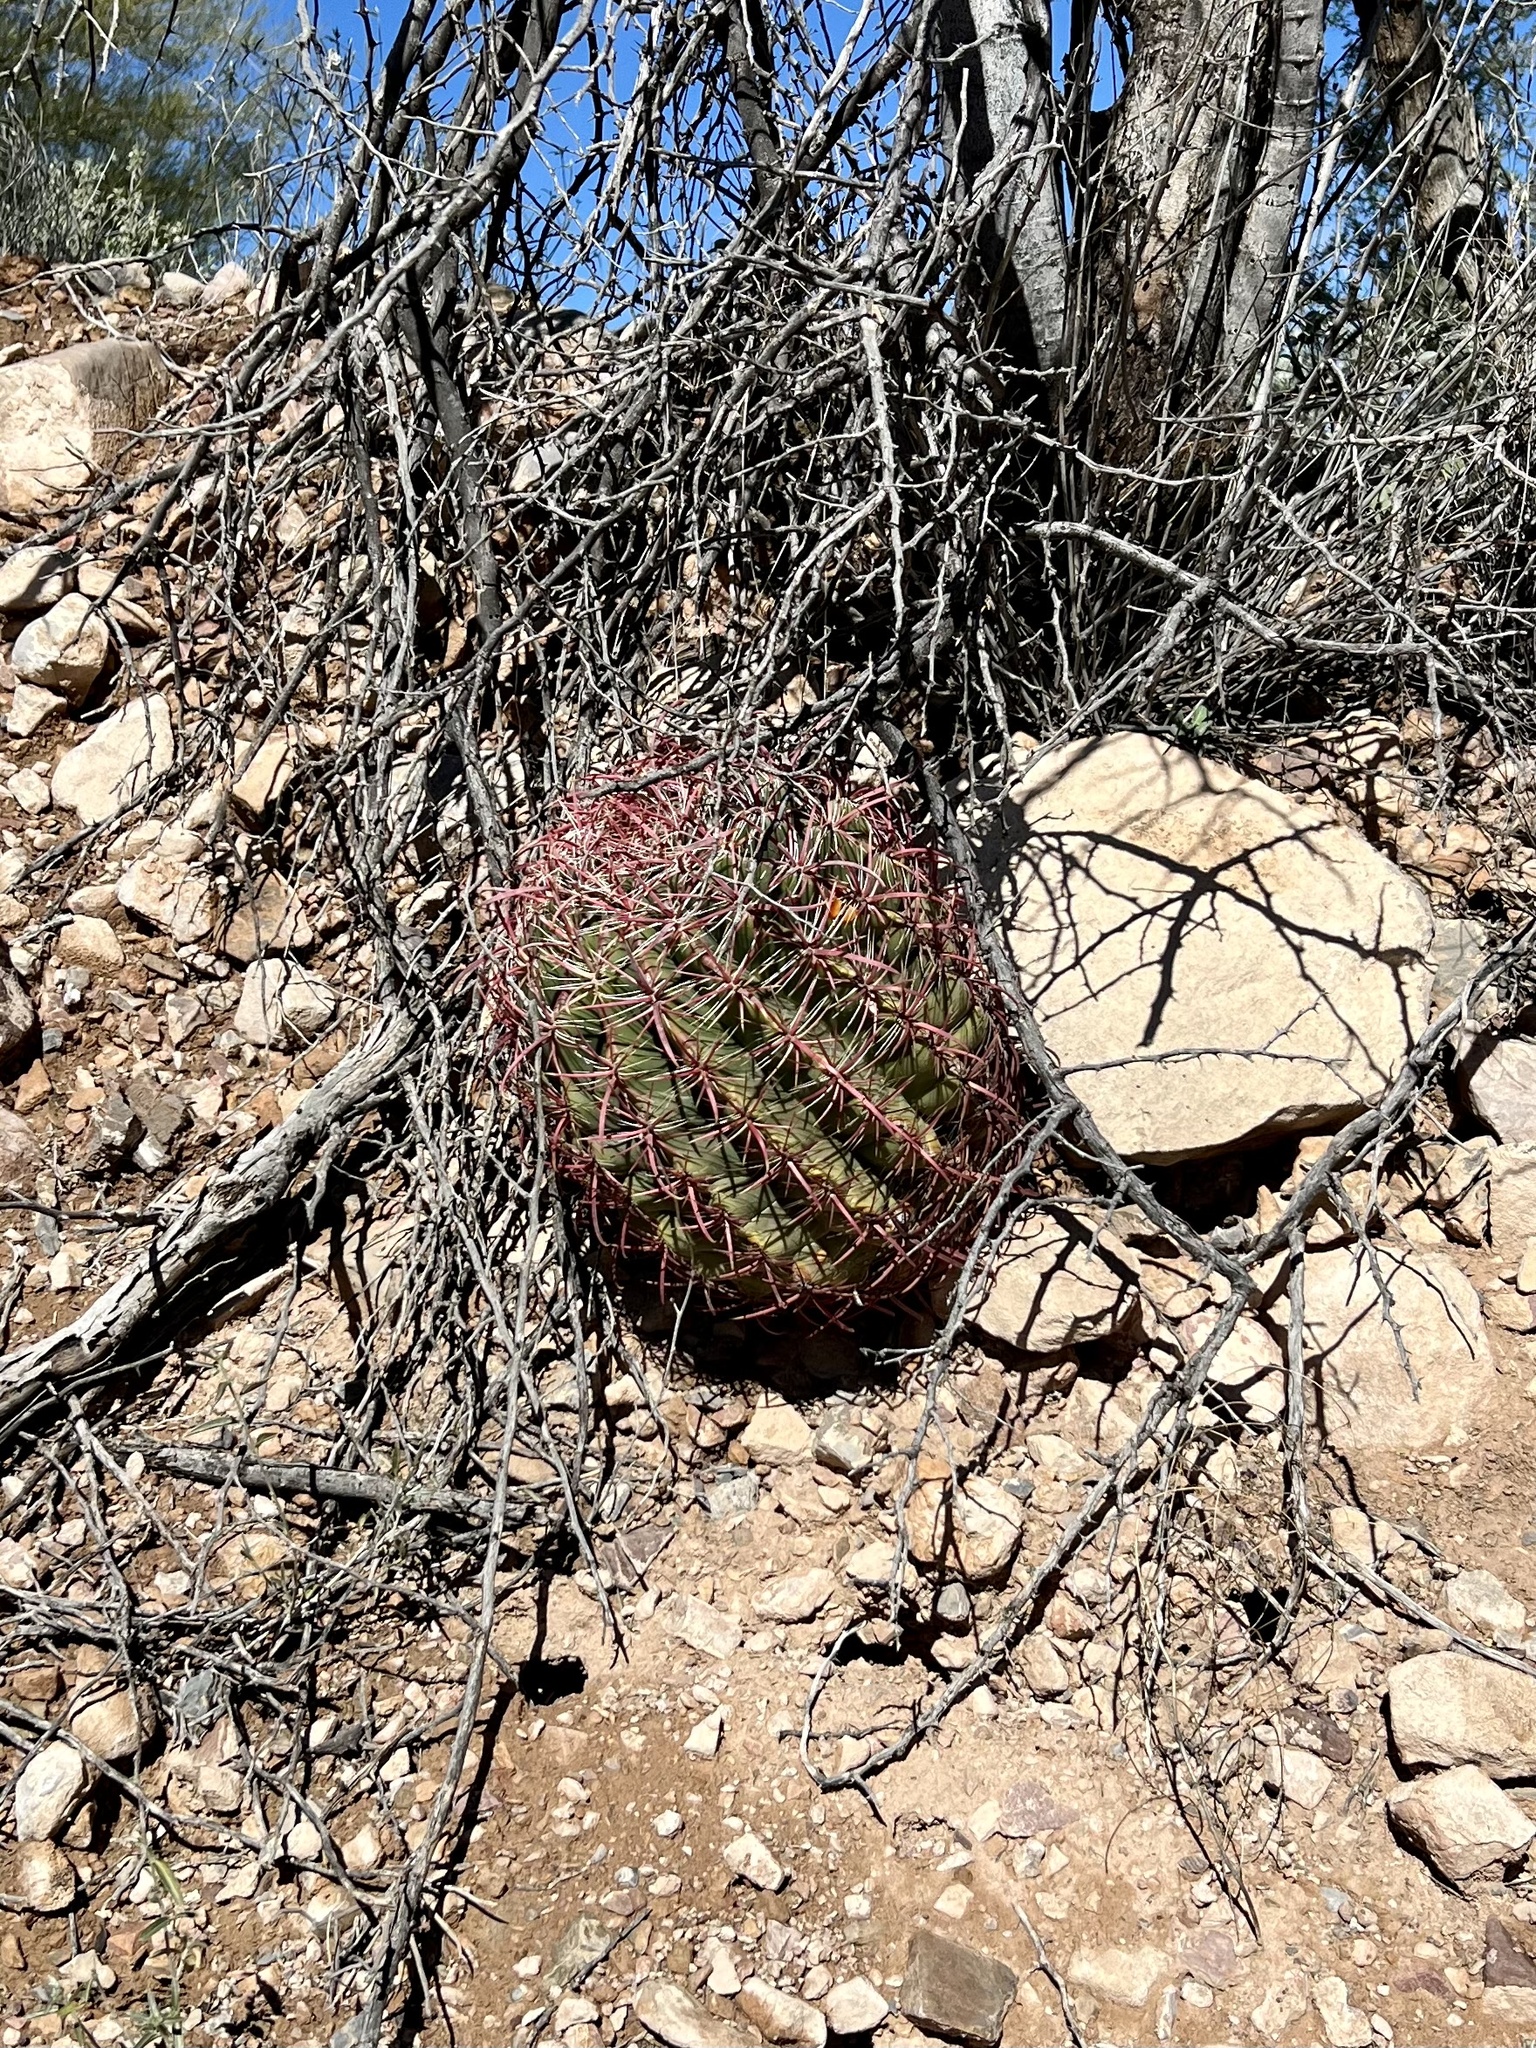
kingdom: Plantae
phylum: Tracheophyta
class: Magnoliopsida
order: Caryophyllales
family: Cactaceae
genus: Ferocactus
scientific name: Ferocactus cylindraceus
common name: California barrel cactus
